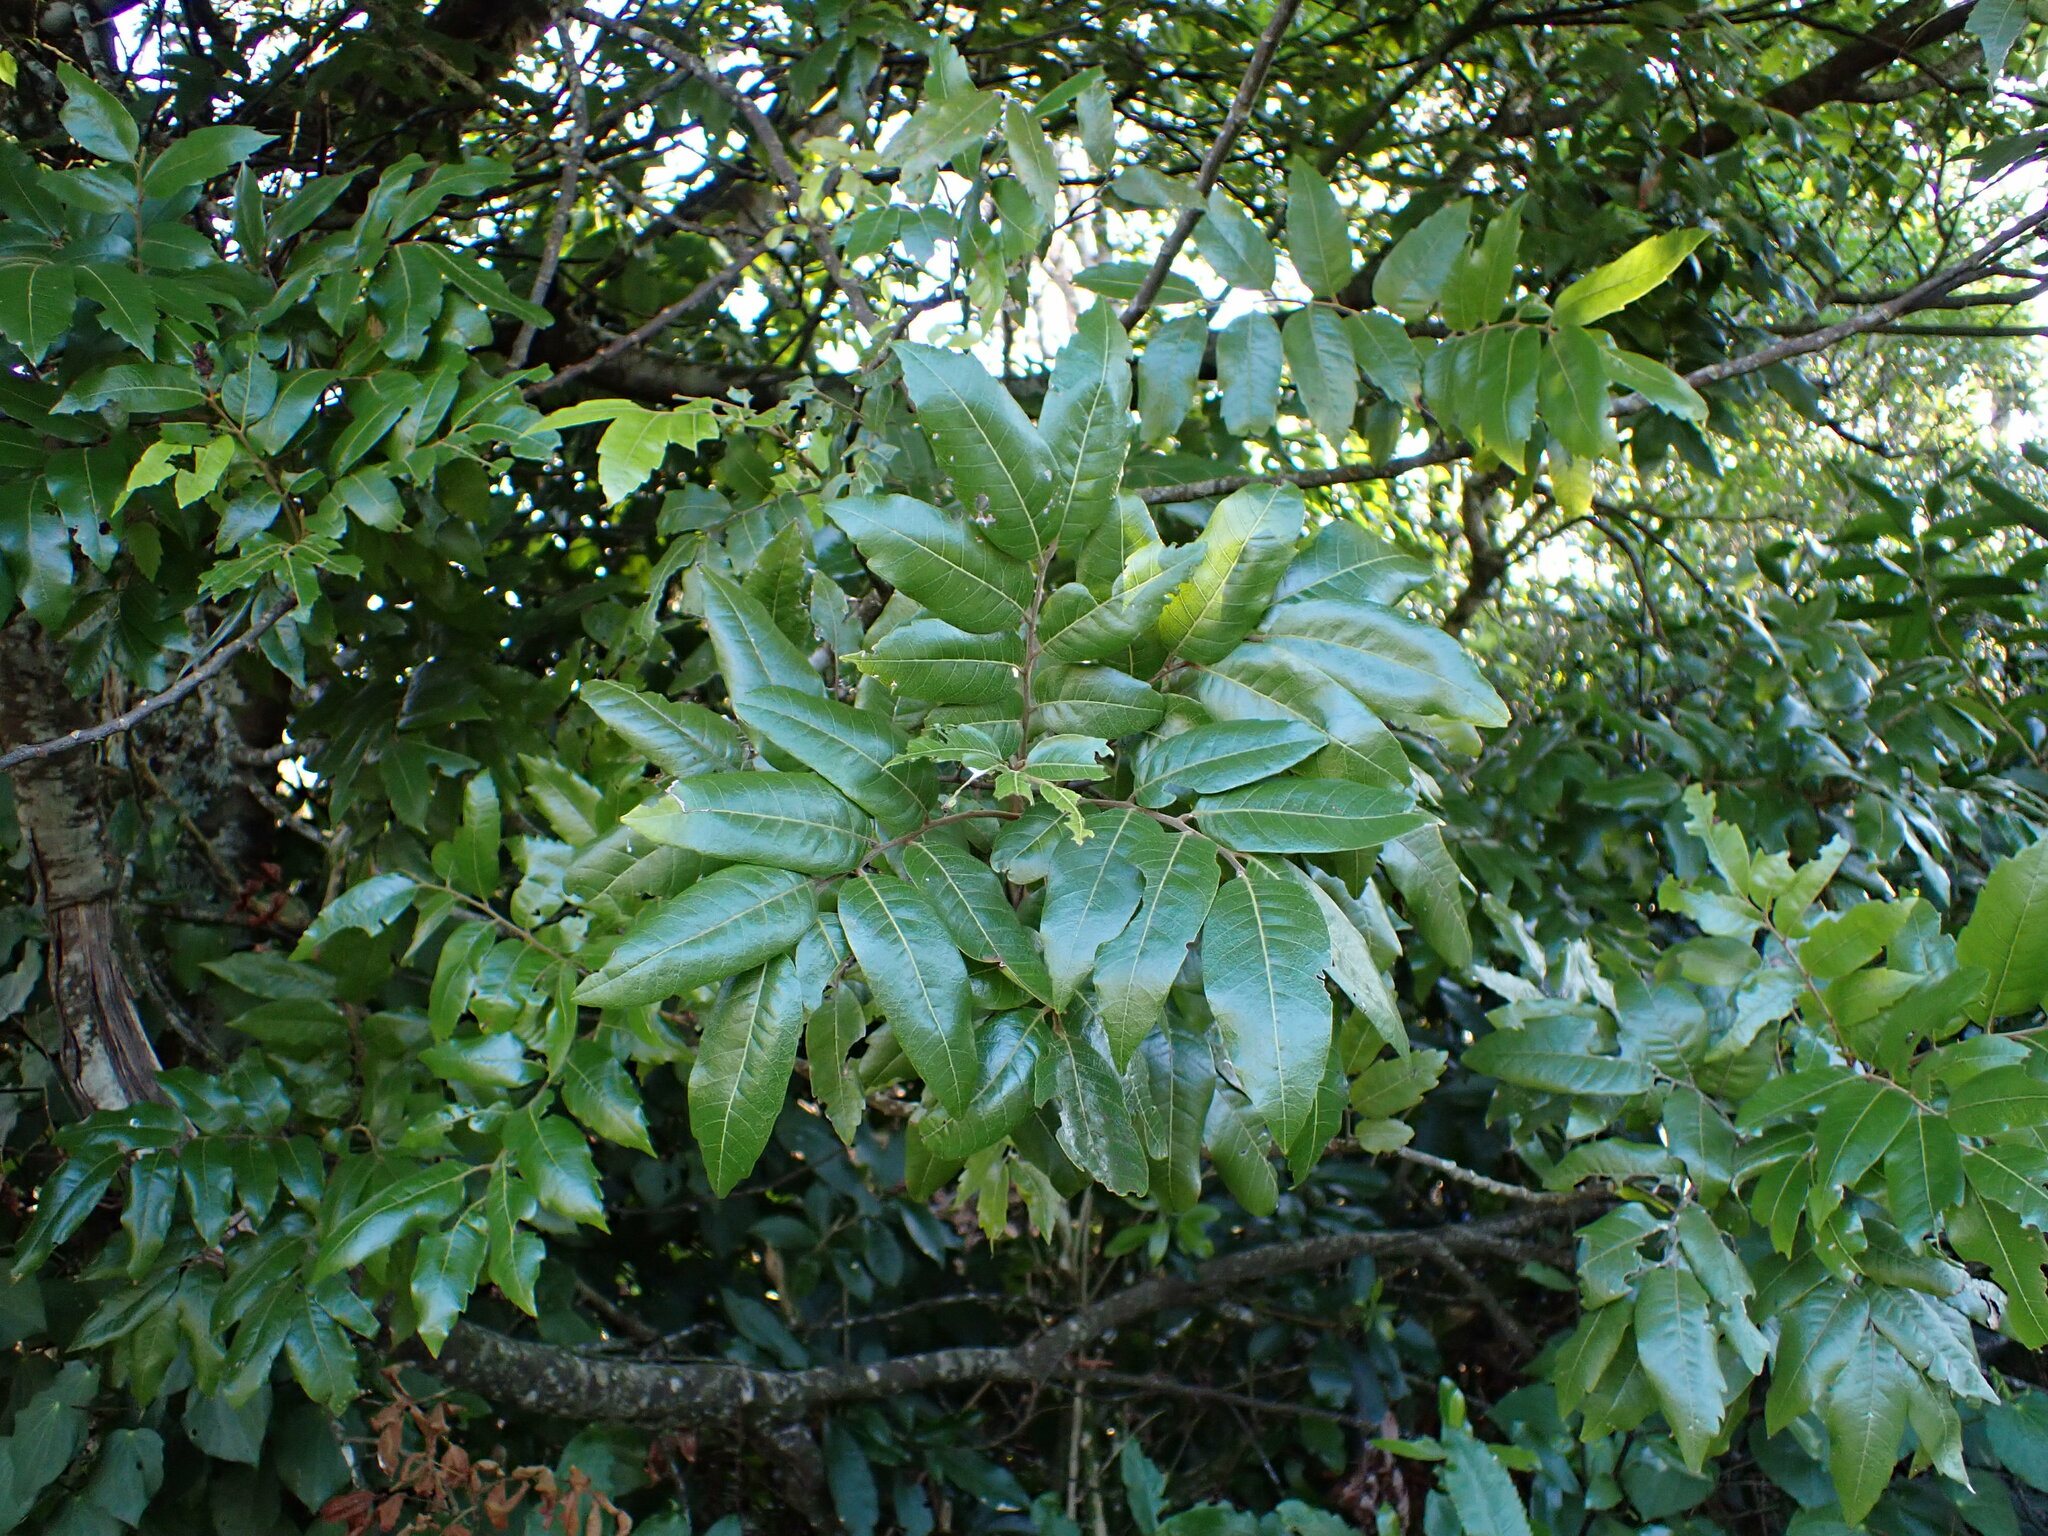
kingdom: Plantae
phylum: Tracheophyta
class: Magnoliopsida
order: Sapindales
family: Sapindaceae
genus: Alectryon
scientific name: Alectryon excelsus
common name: Three kings titoki
